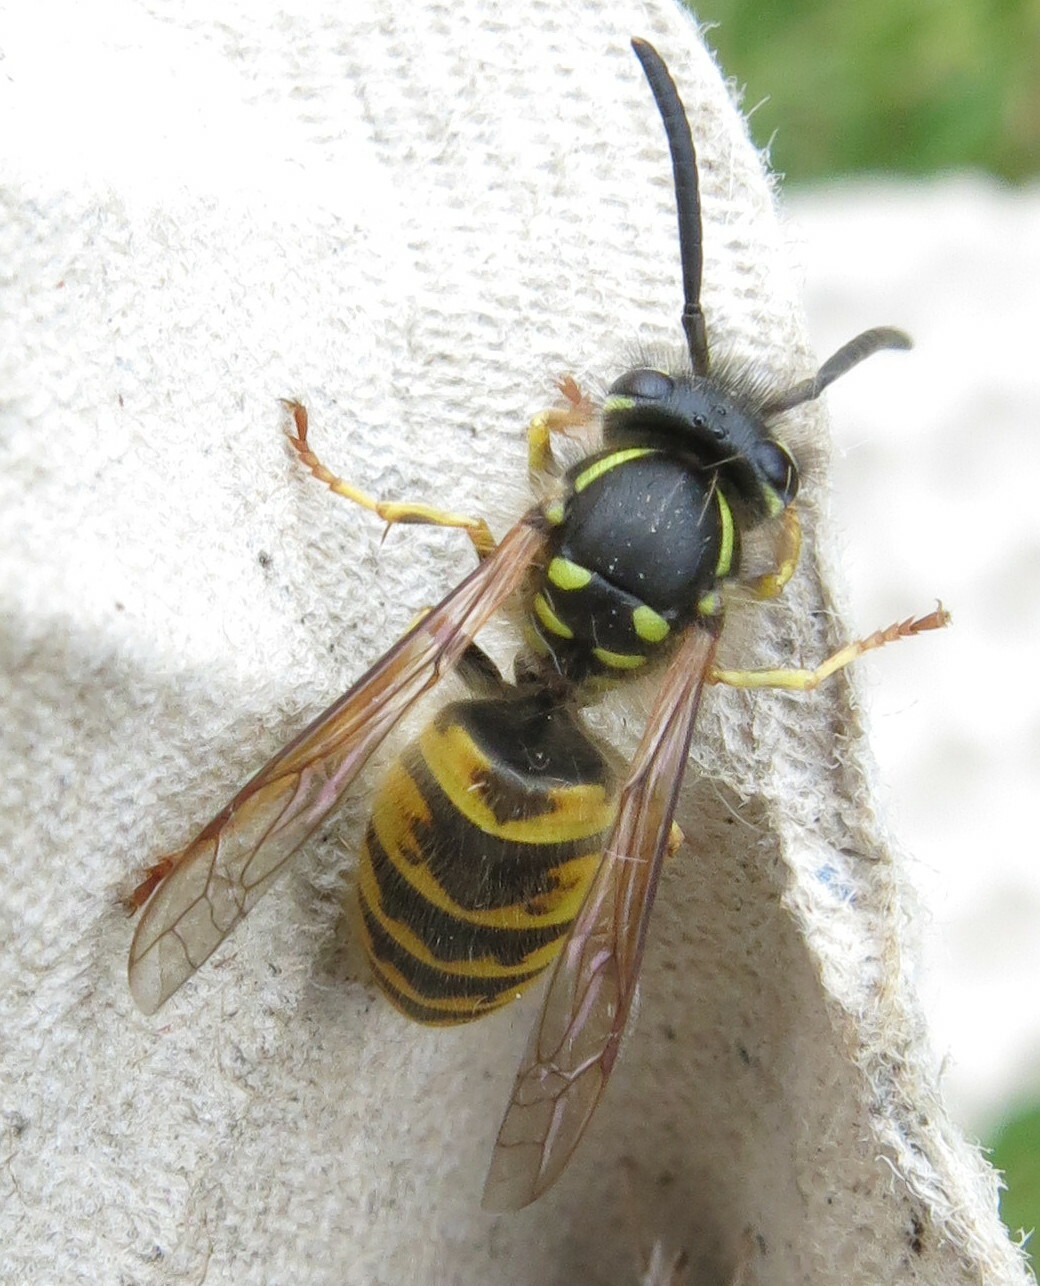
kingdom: Animalia
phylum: Arthropoda
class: Insecta
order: Hymenoptera
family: Vespidae
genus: Vespula
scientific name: Vespula vulgaris
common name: Common wasp
